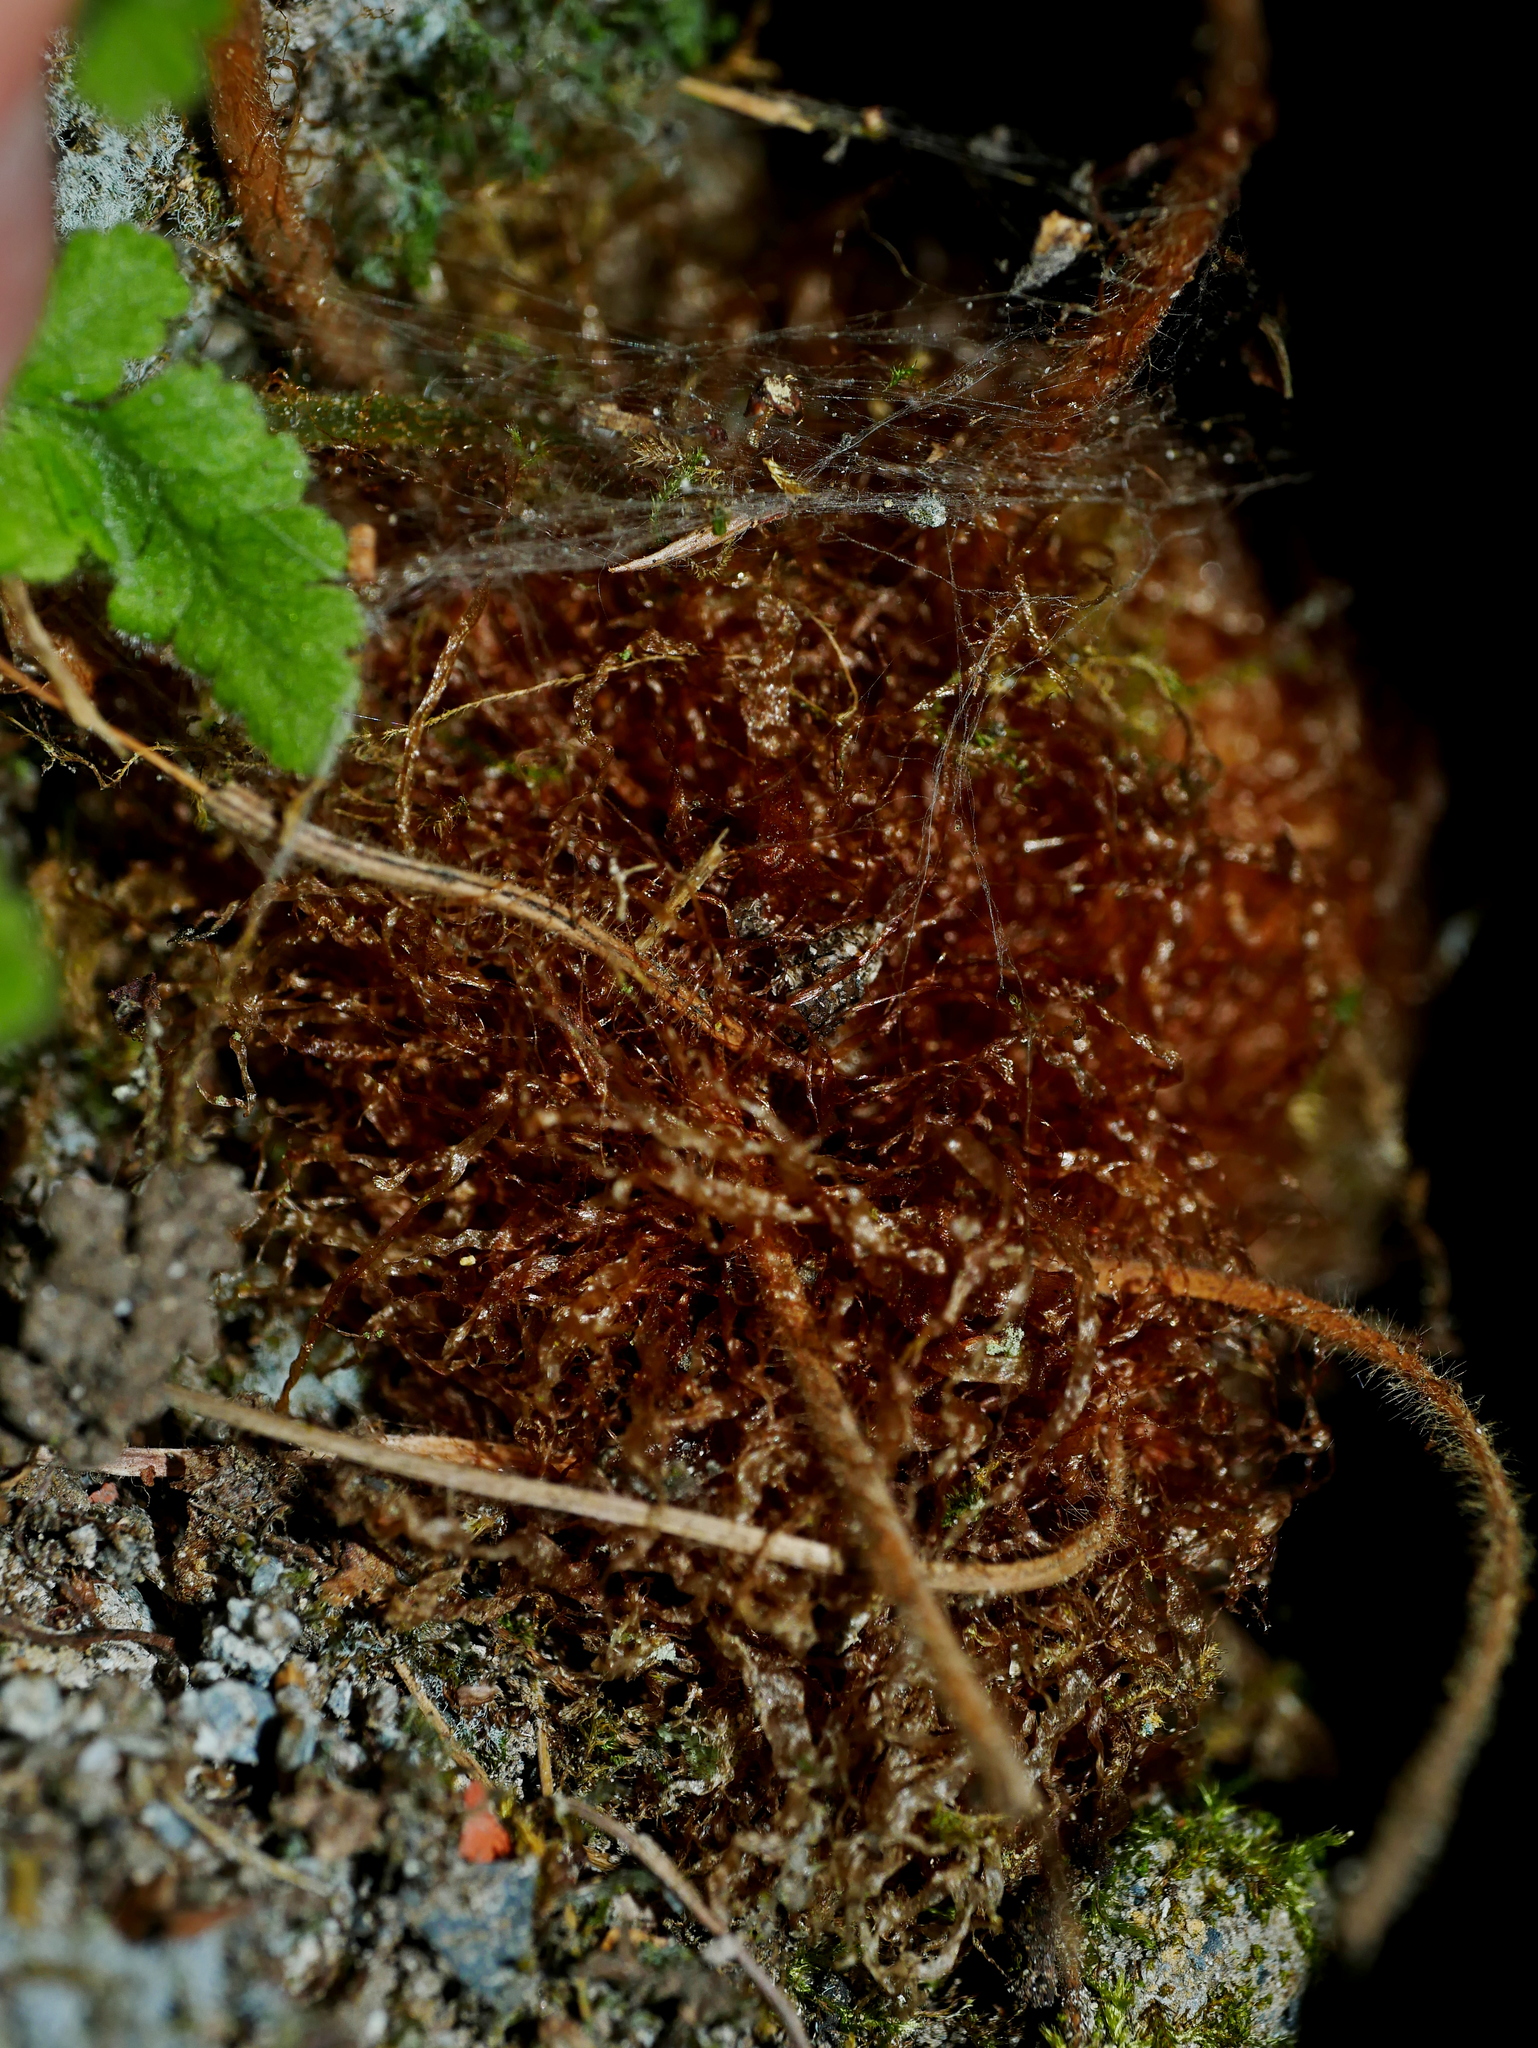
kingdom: Plantae
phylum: Tracheophyta
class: Polypodiopsida
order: Polypodiales
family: Hypodematiaceae
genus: Hypodematium
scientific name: Hypodematium shingii
